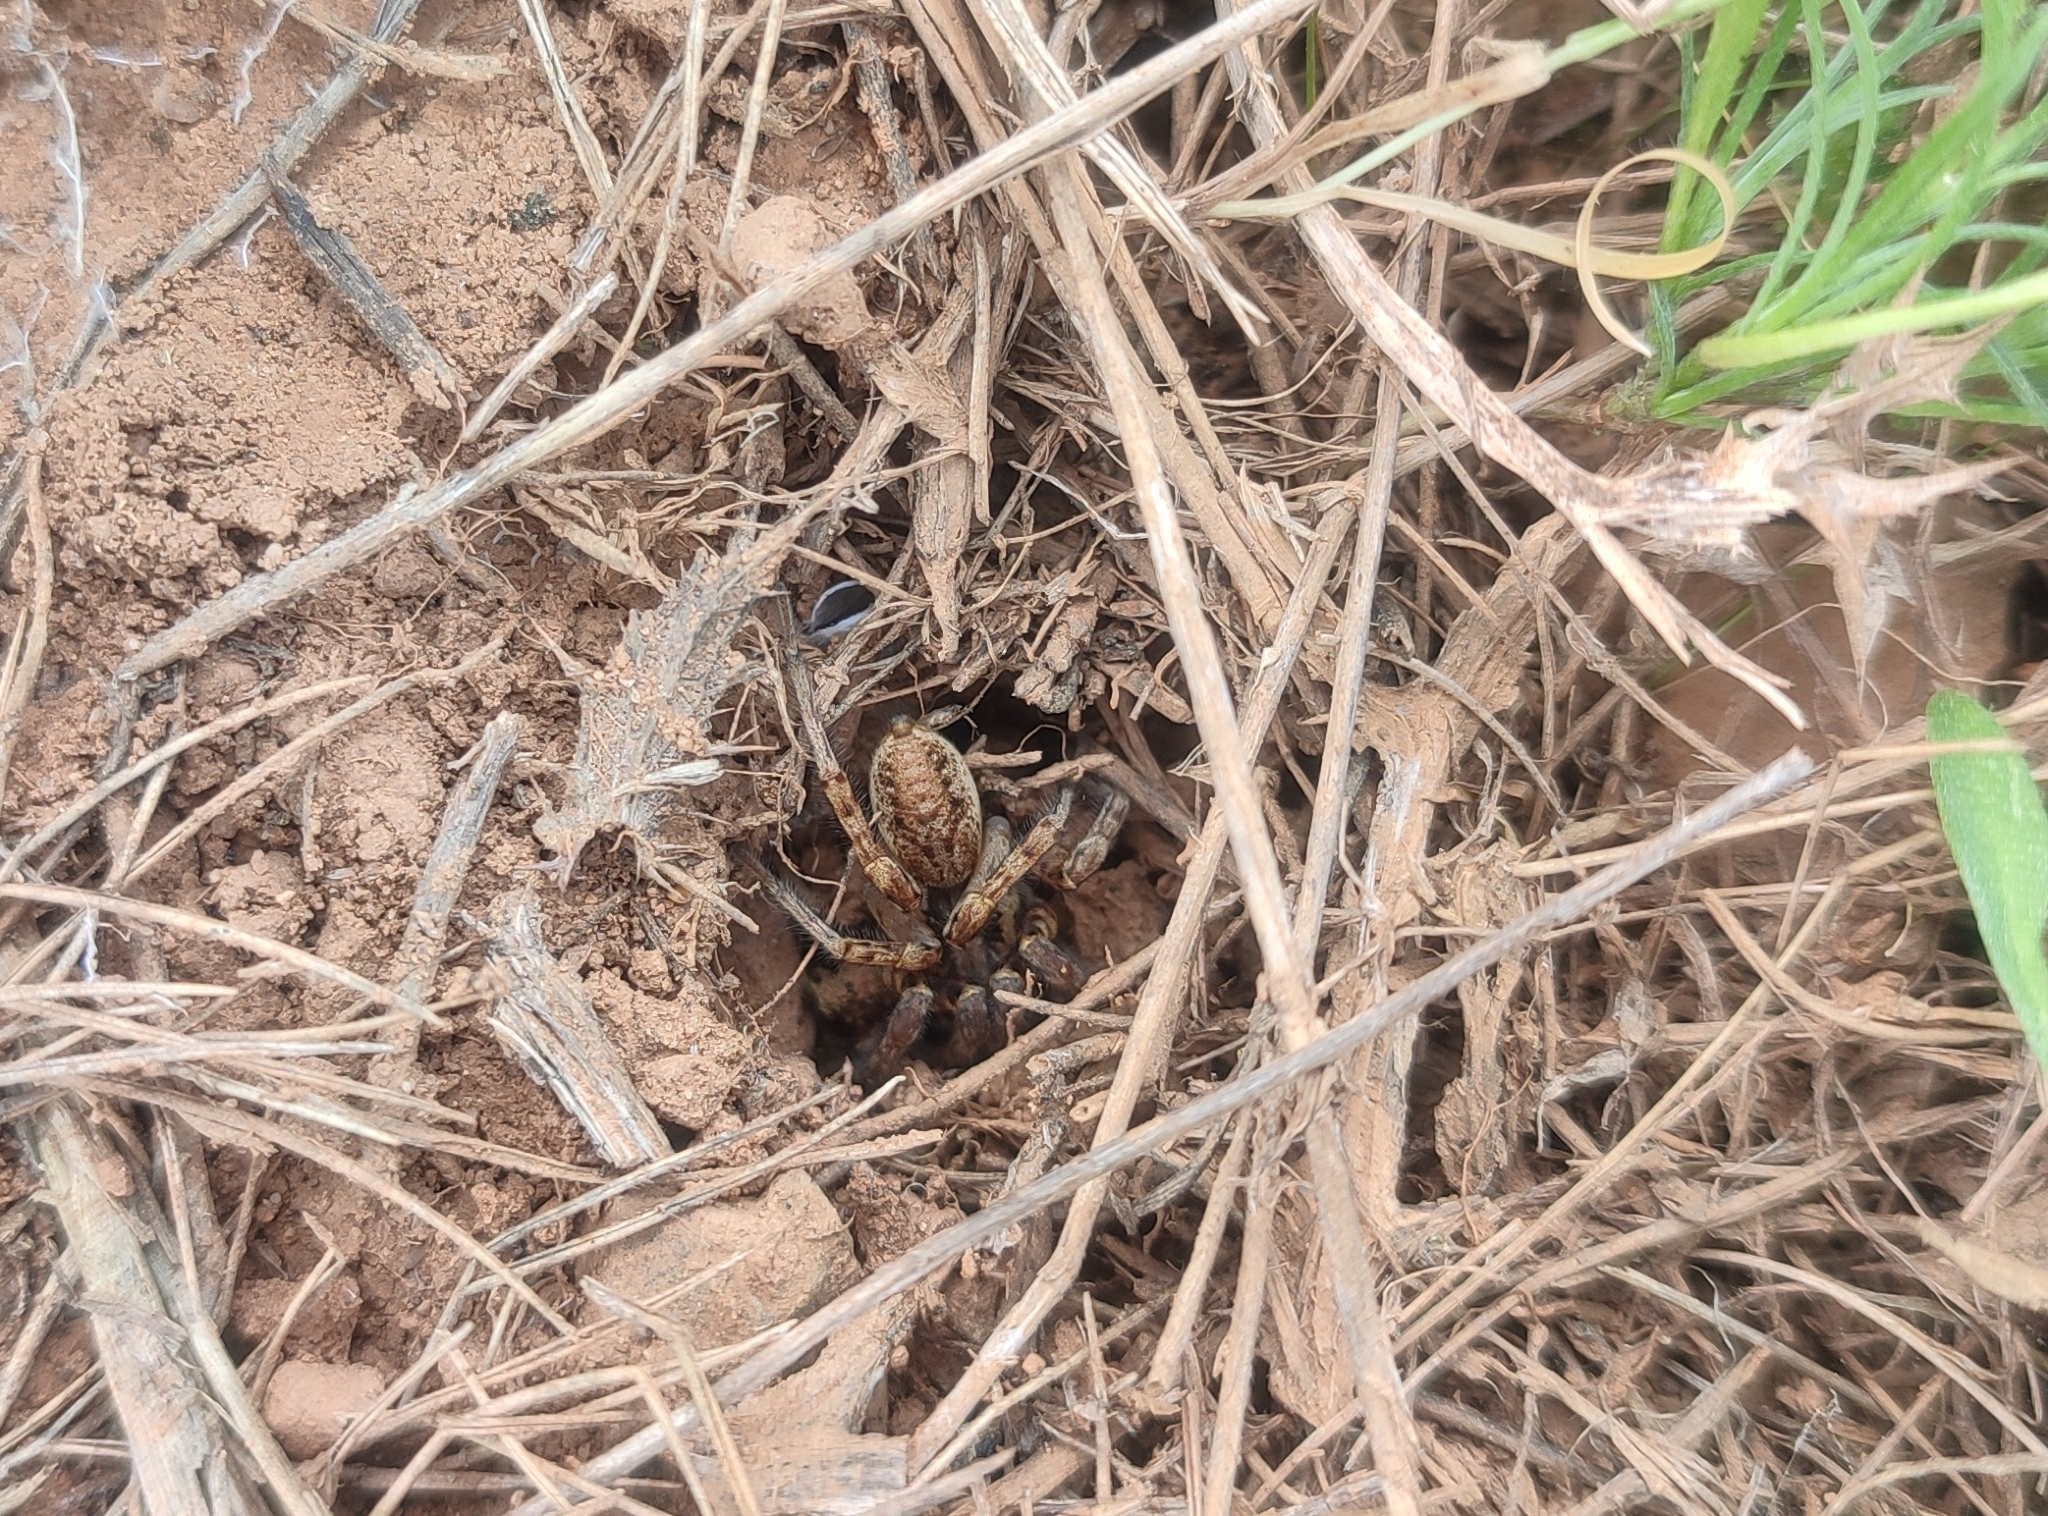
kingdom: Animalia
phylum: Arthropoda
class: Arachnida
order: Araneae
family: Lycosidae
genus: Lycosa
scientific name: Lycosa tarantula
